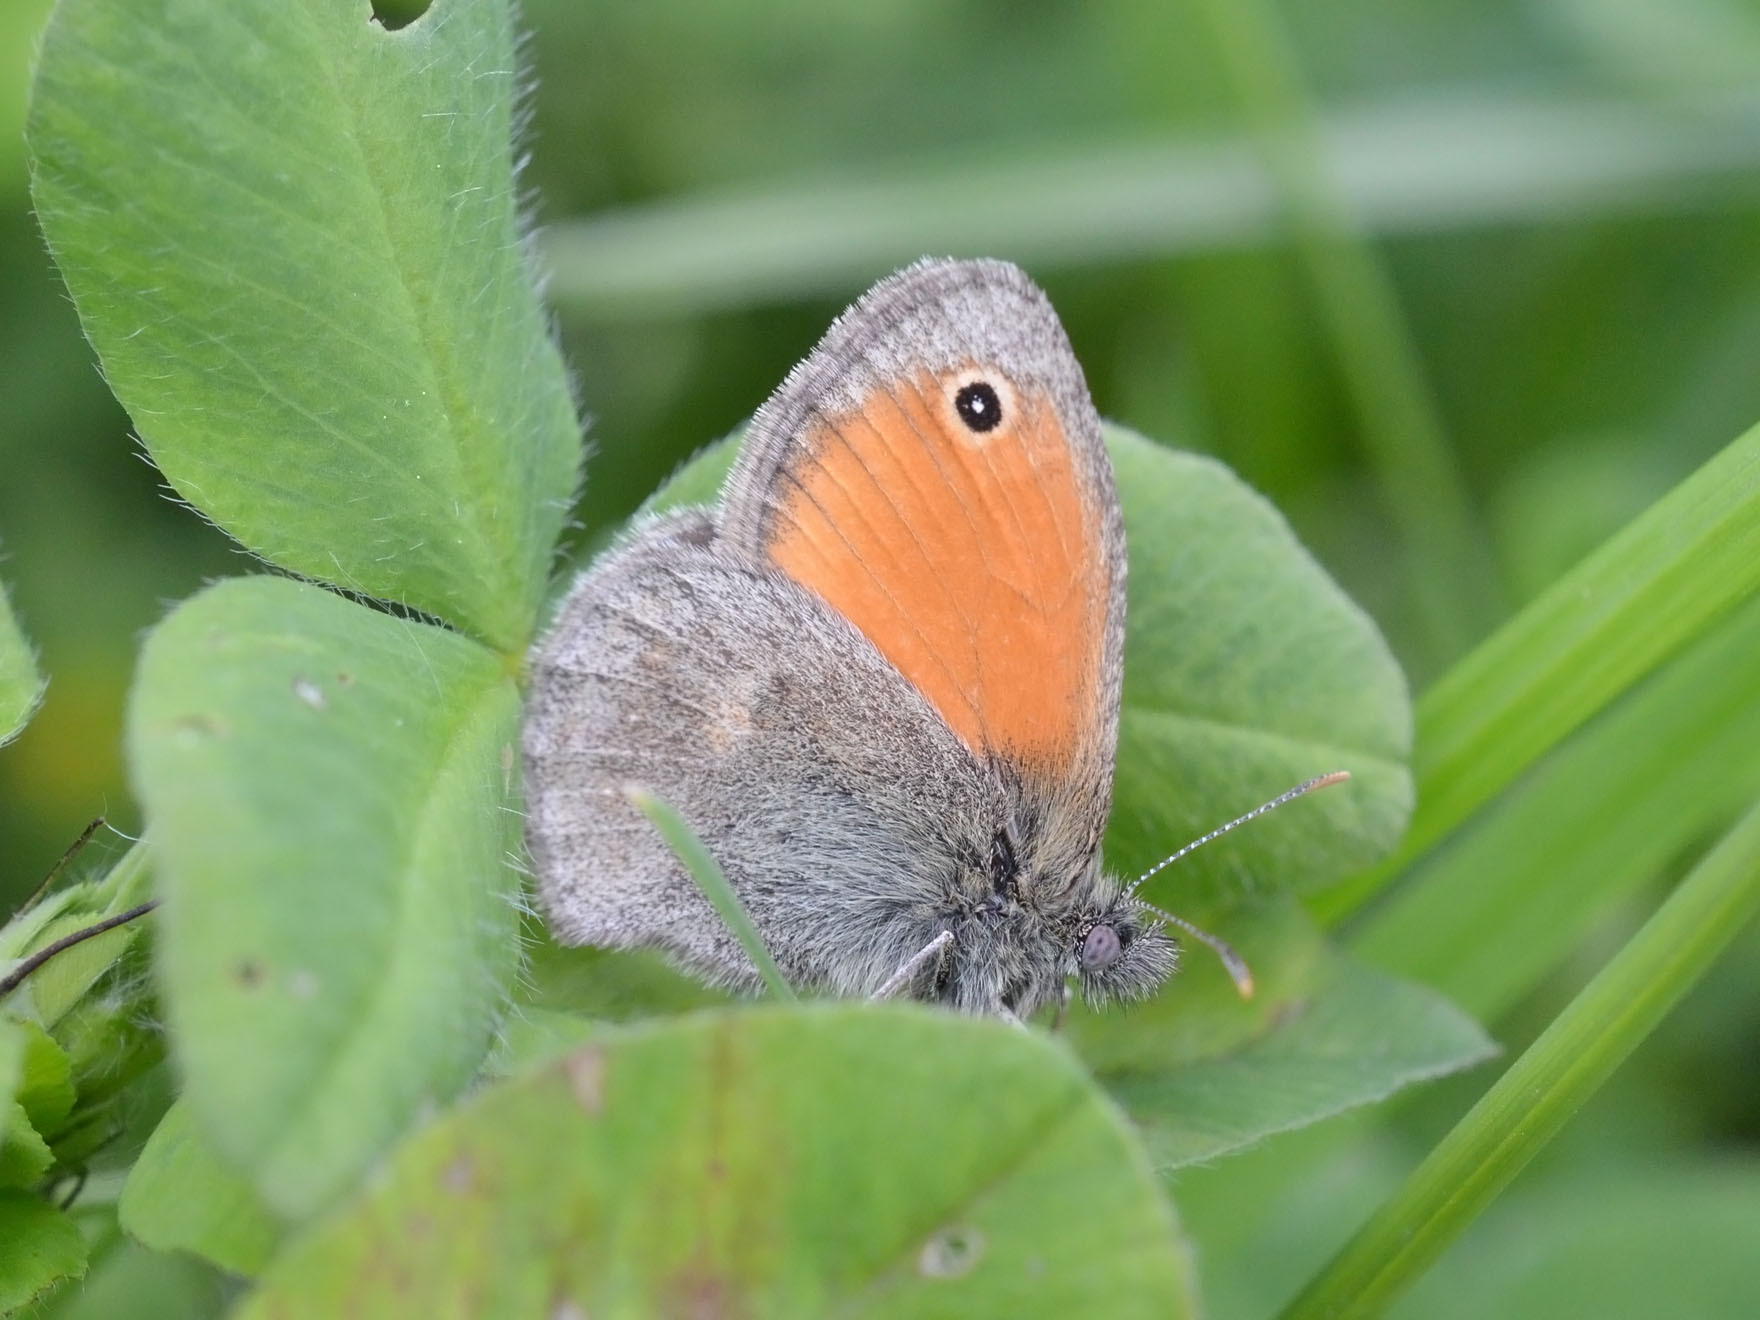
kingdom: Animalia
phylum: Arthropoda
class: Insecta
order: Lepidoptera
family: Nymphalidae
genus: Coenonympha
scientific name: Coenonympha pamphilus
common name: Small heath
